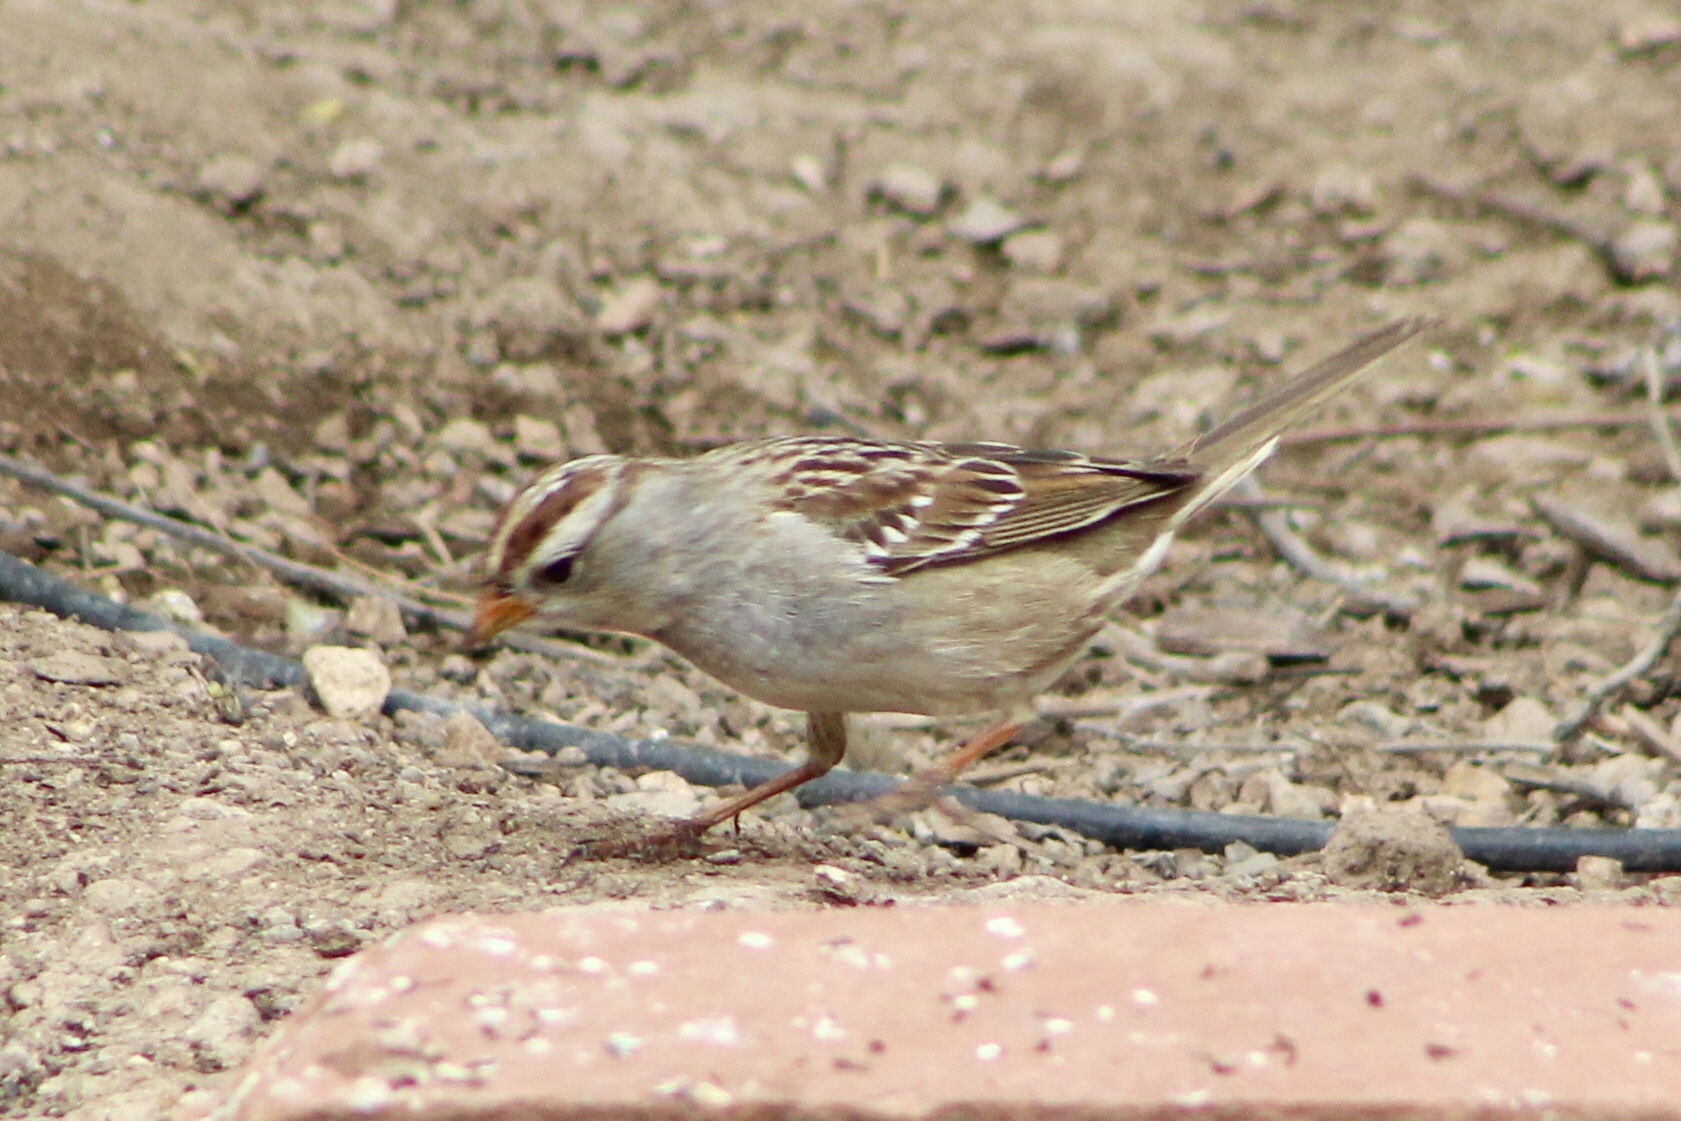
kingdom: Animalia
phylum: Chordata
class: Aves
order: Passeriformes
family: Passerellidae
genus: Zonotrichia
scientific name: Zonotrichia leucophrys
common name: White-crowned sparrow
